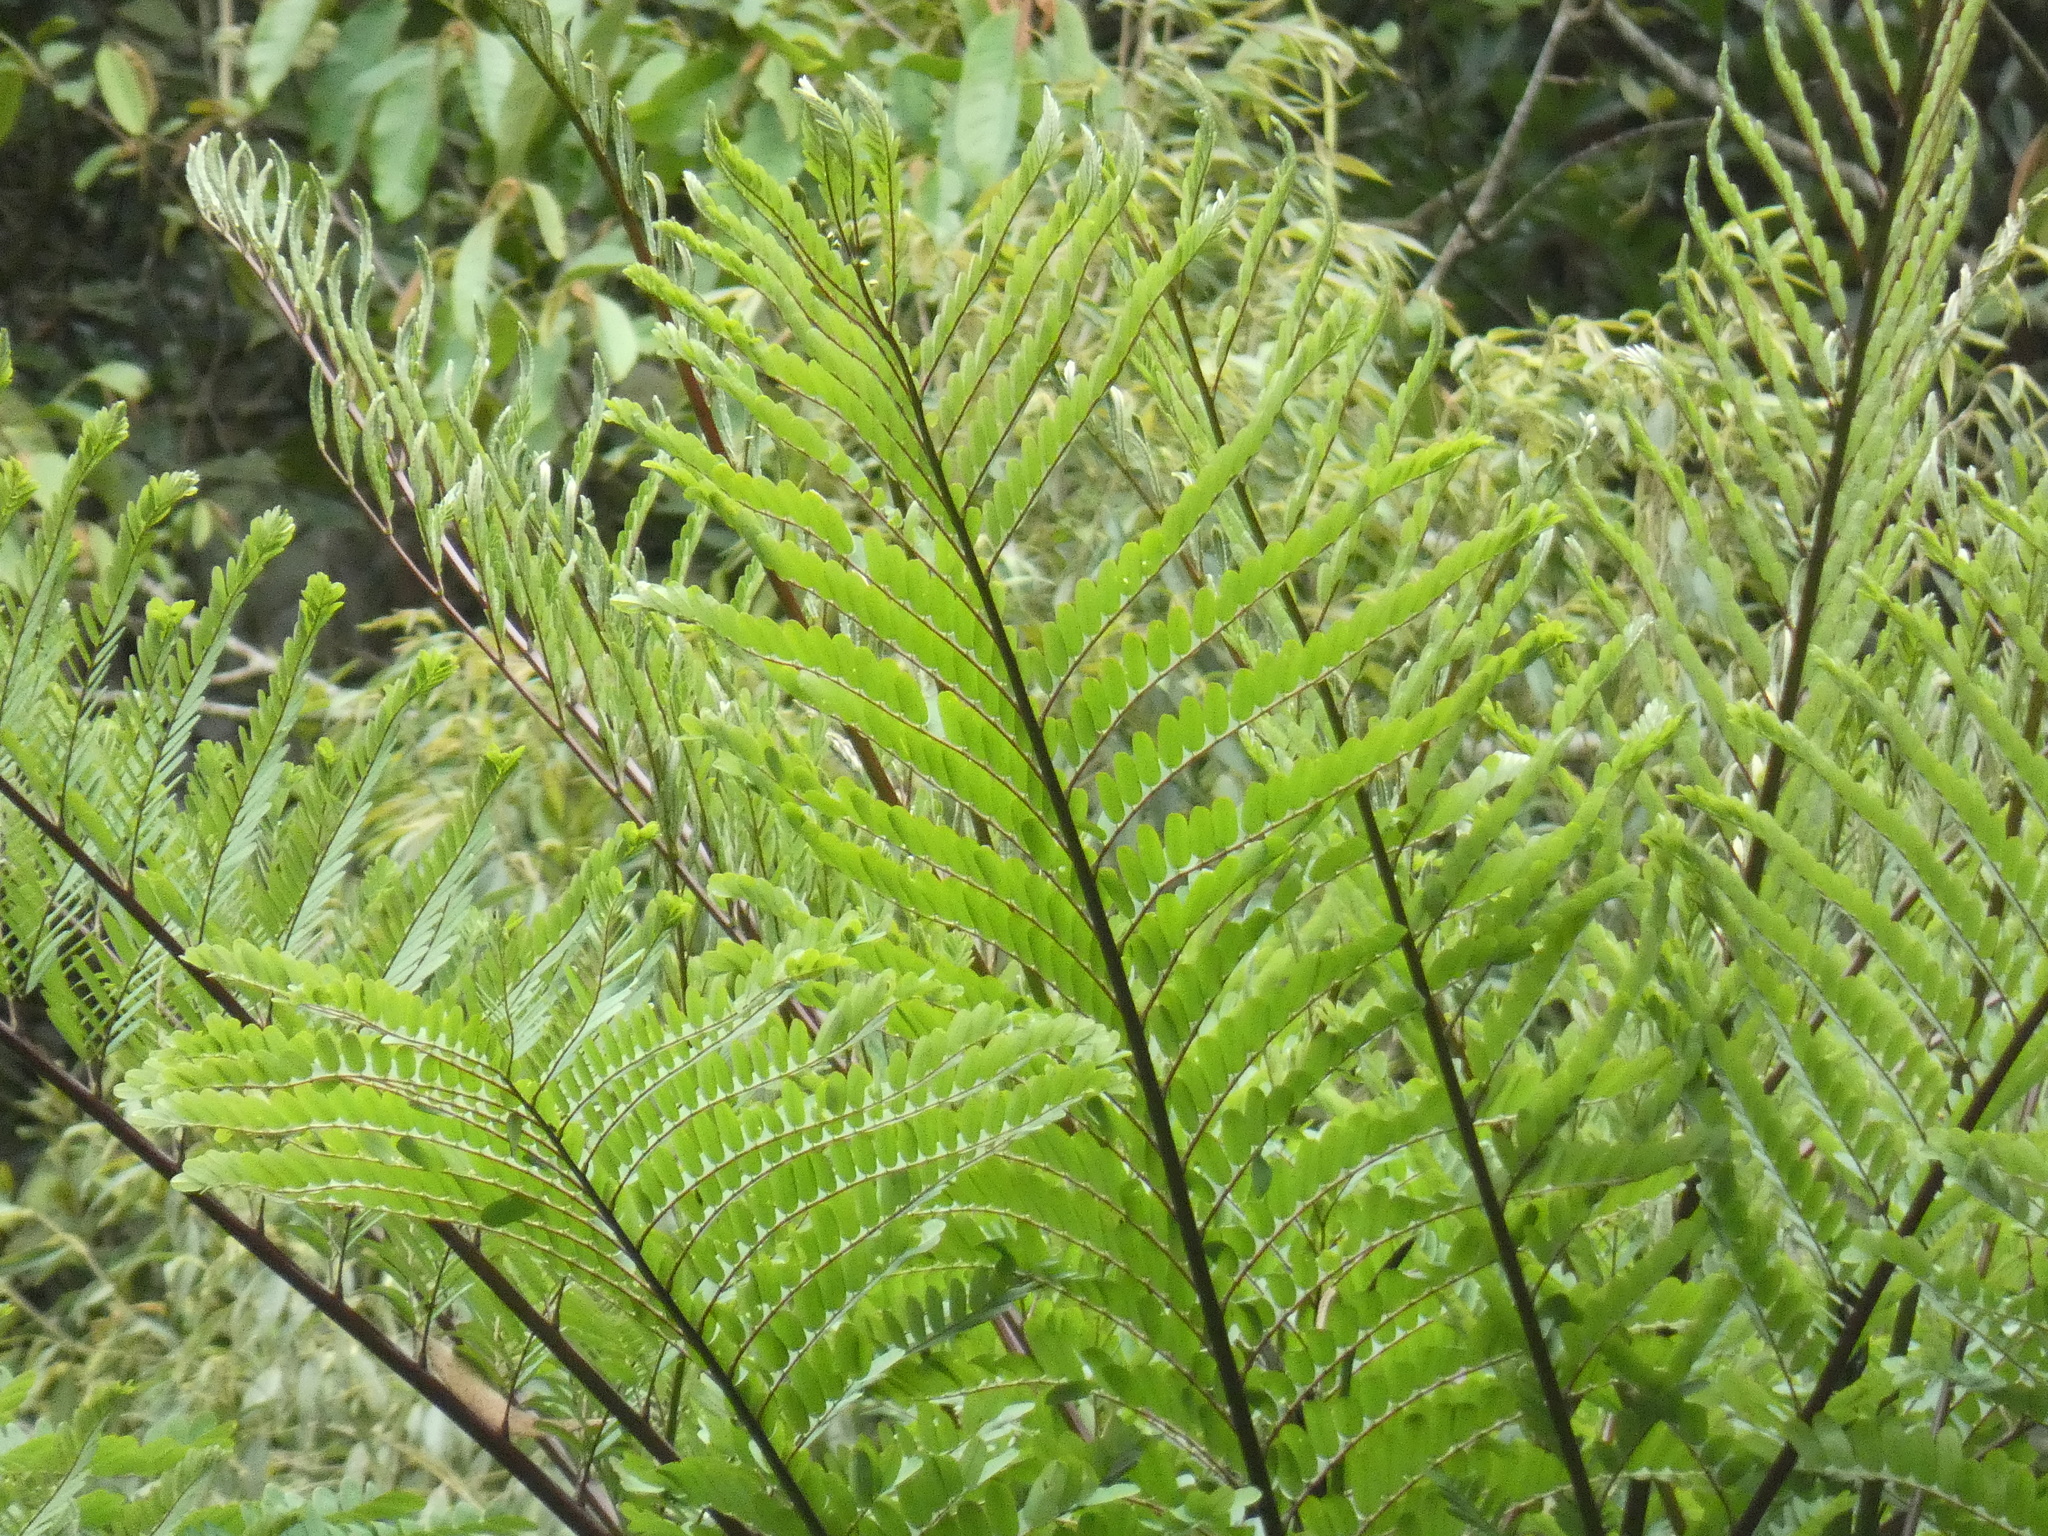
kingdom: Plantae
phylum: Tracheophyta
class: Magnoliopsida
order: Fabales
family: Fabaceae
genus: Schizolobium
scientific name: Schizolobium parahyba
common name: Brazilian firetree
